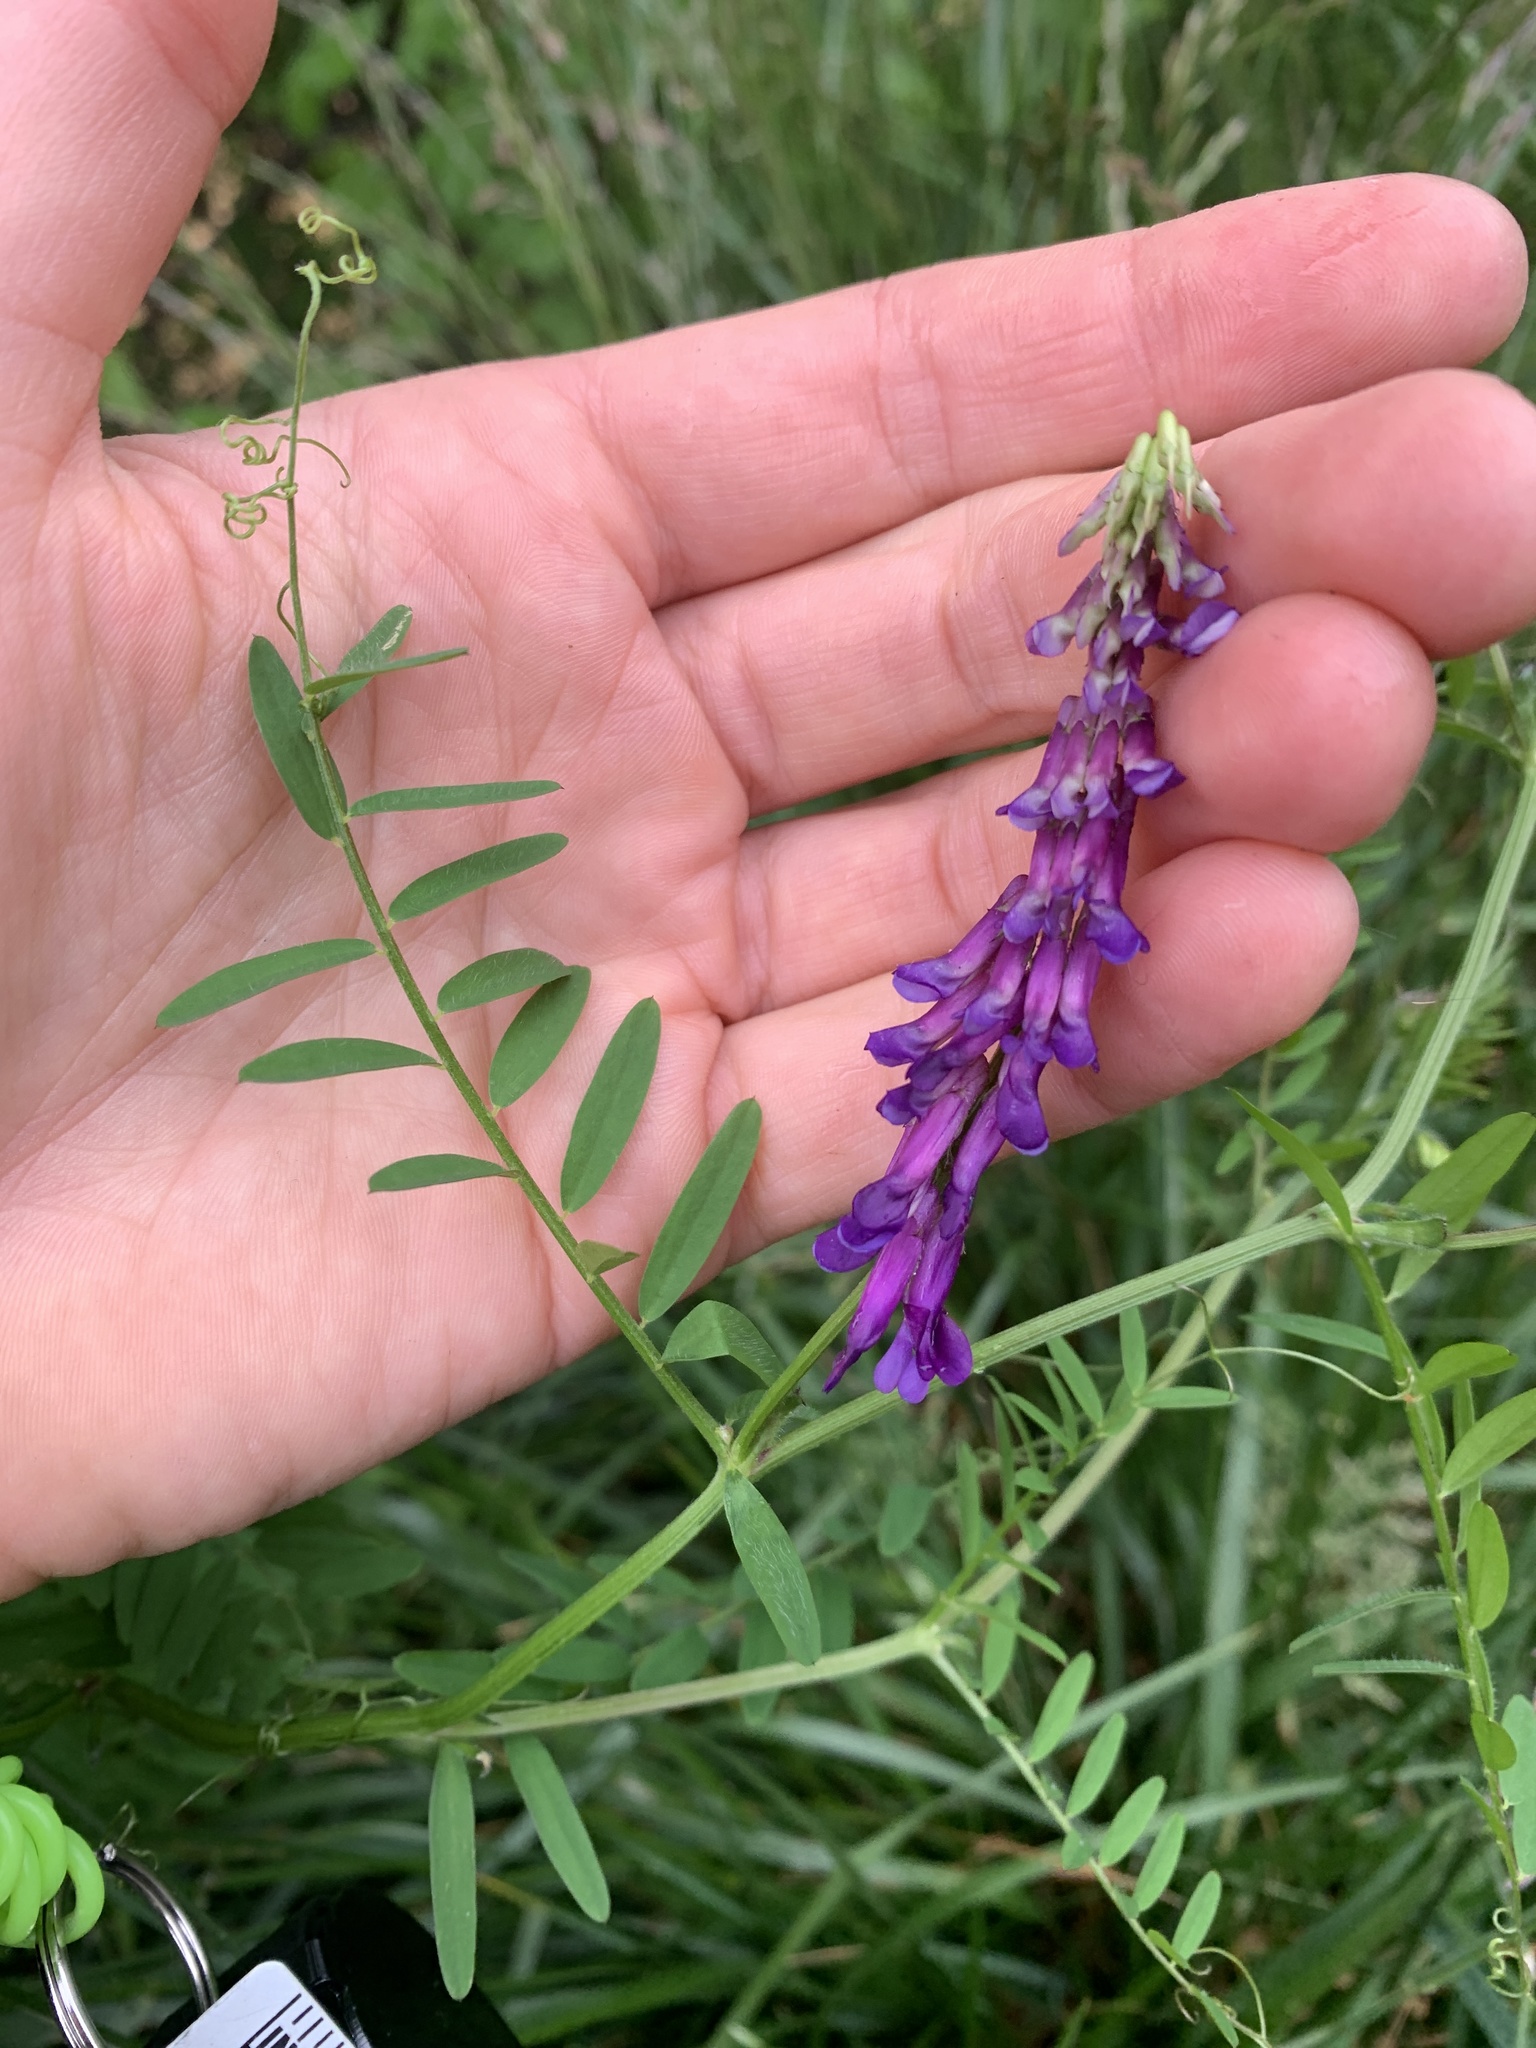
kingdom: Plantae
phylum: Tracheophyta
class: Magnoliopsida
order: Fabales
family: Fabaceae
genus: Vicia
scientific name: Vicia villosa
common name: Fodder vetch
